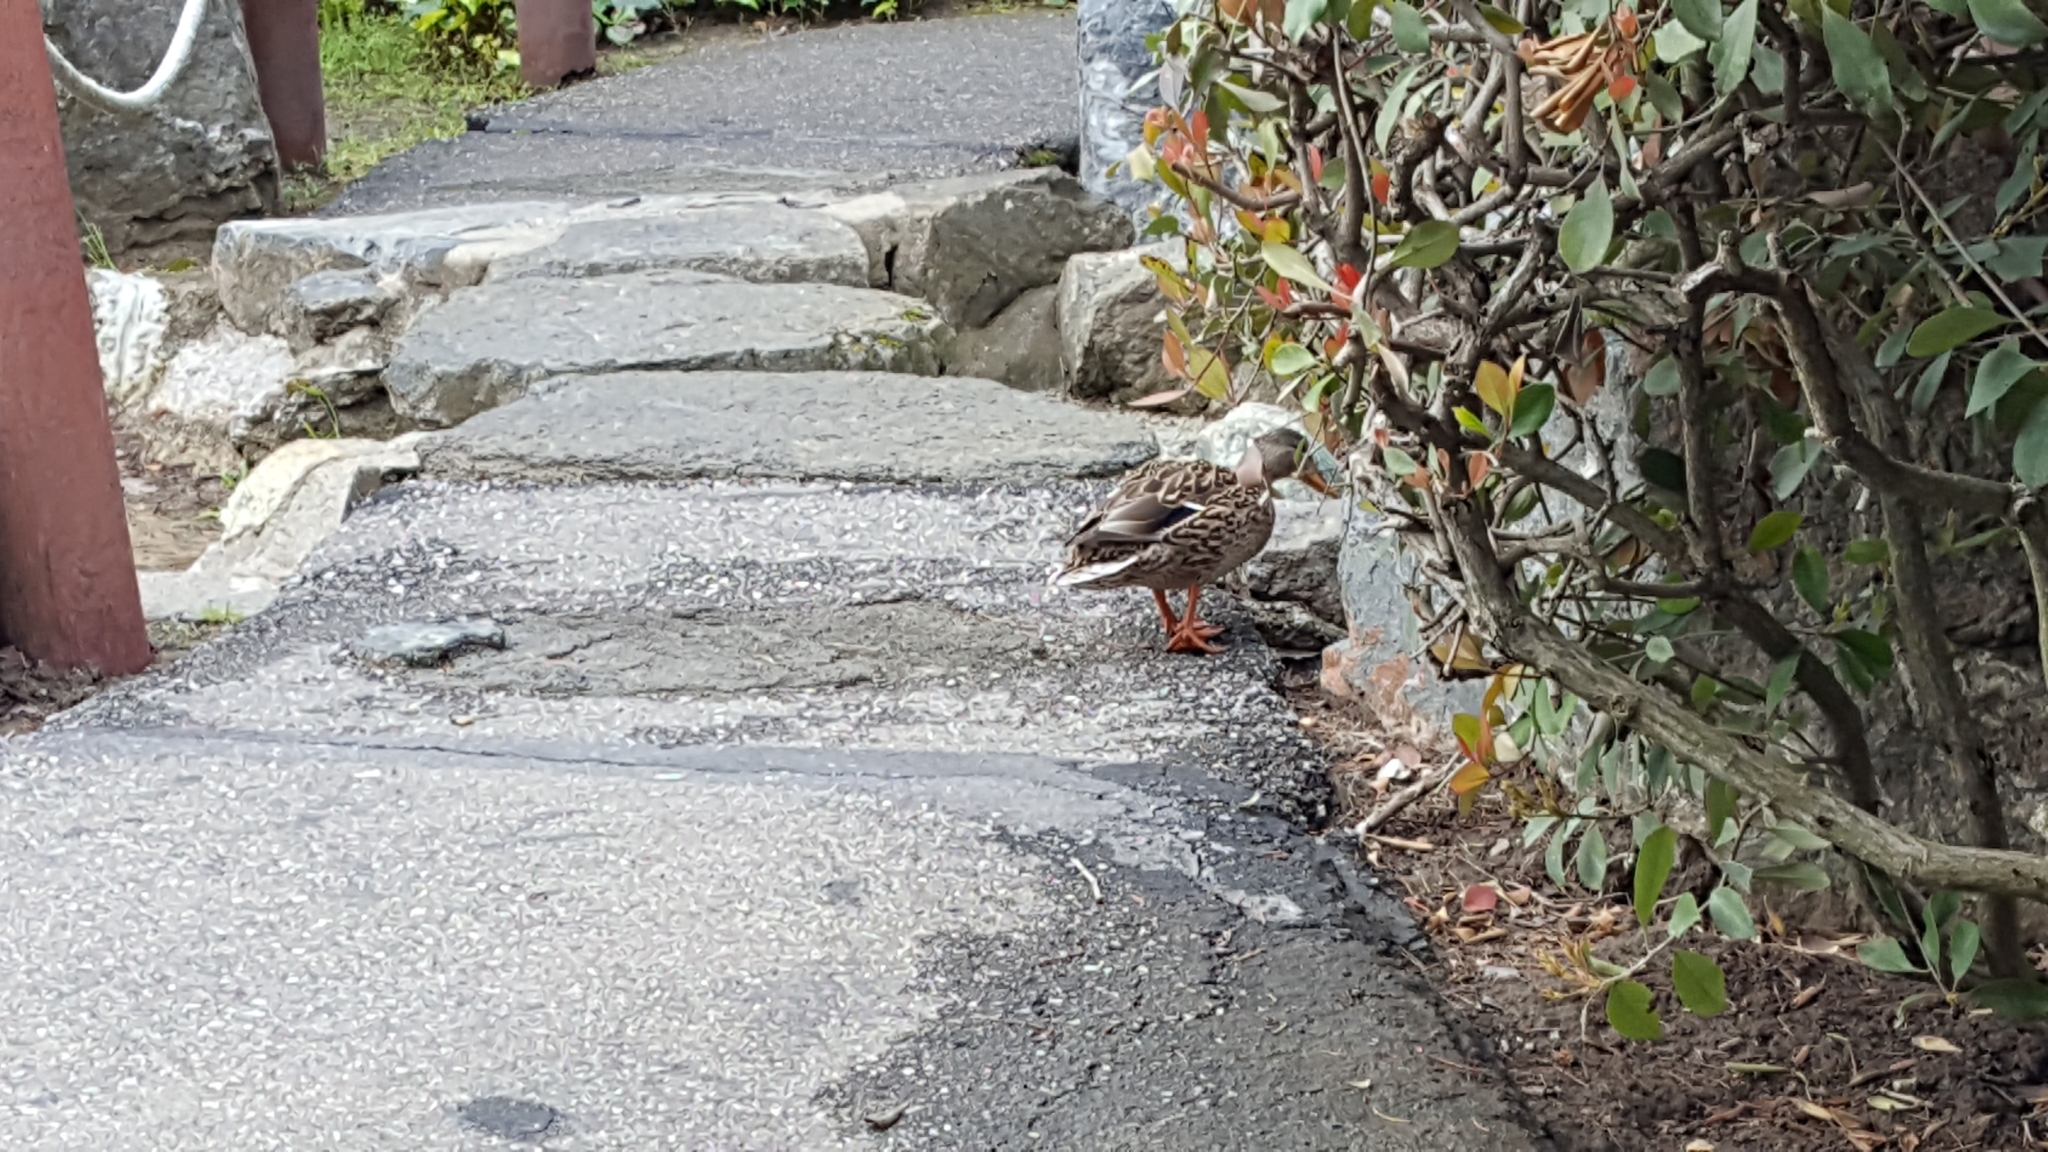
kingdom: Animalia
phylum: Chordata
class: Aves
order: Anseriformes
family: Anatidae
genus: Anas
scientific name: Anas platyrhynchos
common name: Mallard
